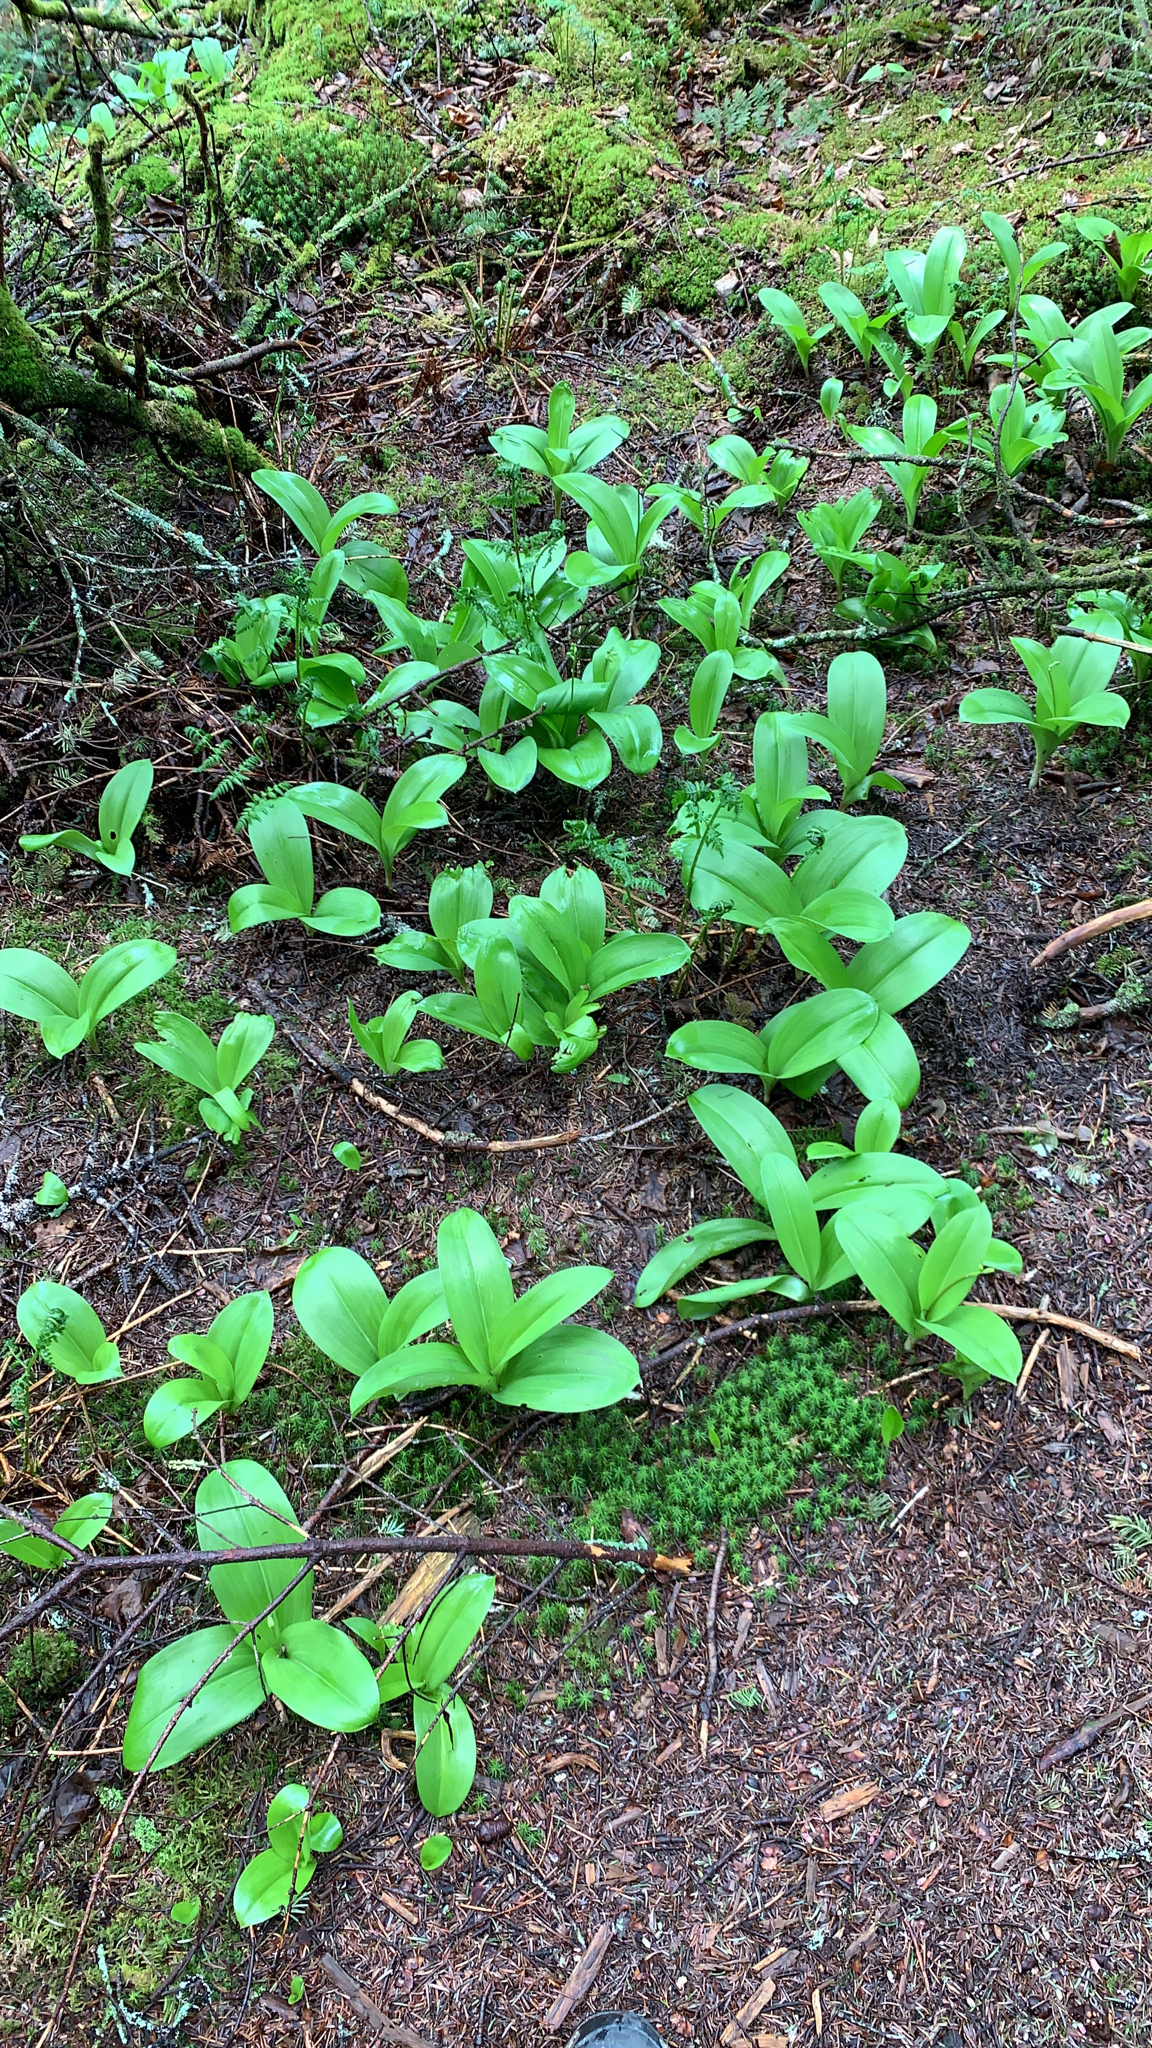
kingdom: Plantae
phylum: Tracheophyta
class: Liliopsida
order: Liliales
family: Liliaceae
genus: Clintonia
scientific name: Clintonia borealis
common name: Yellow clintonia
